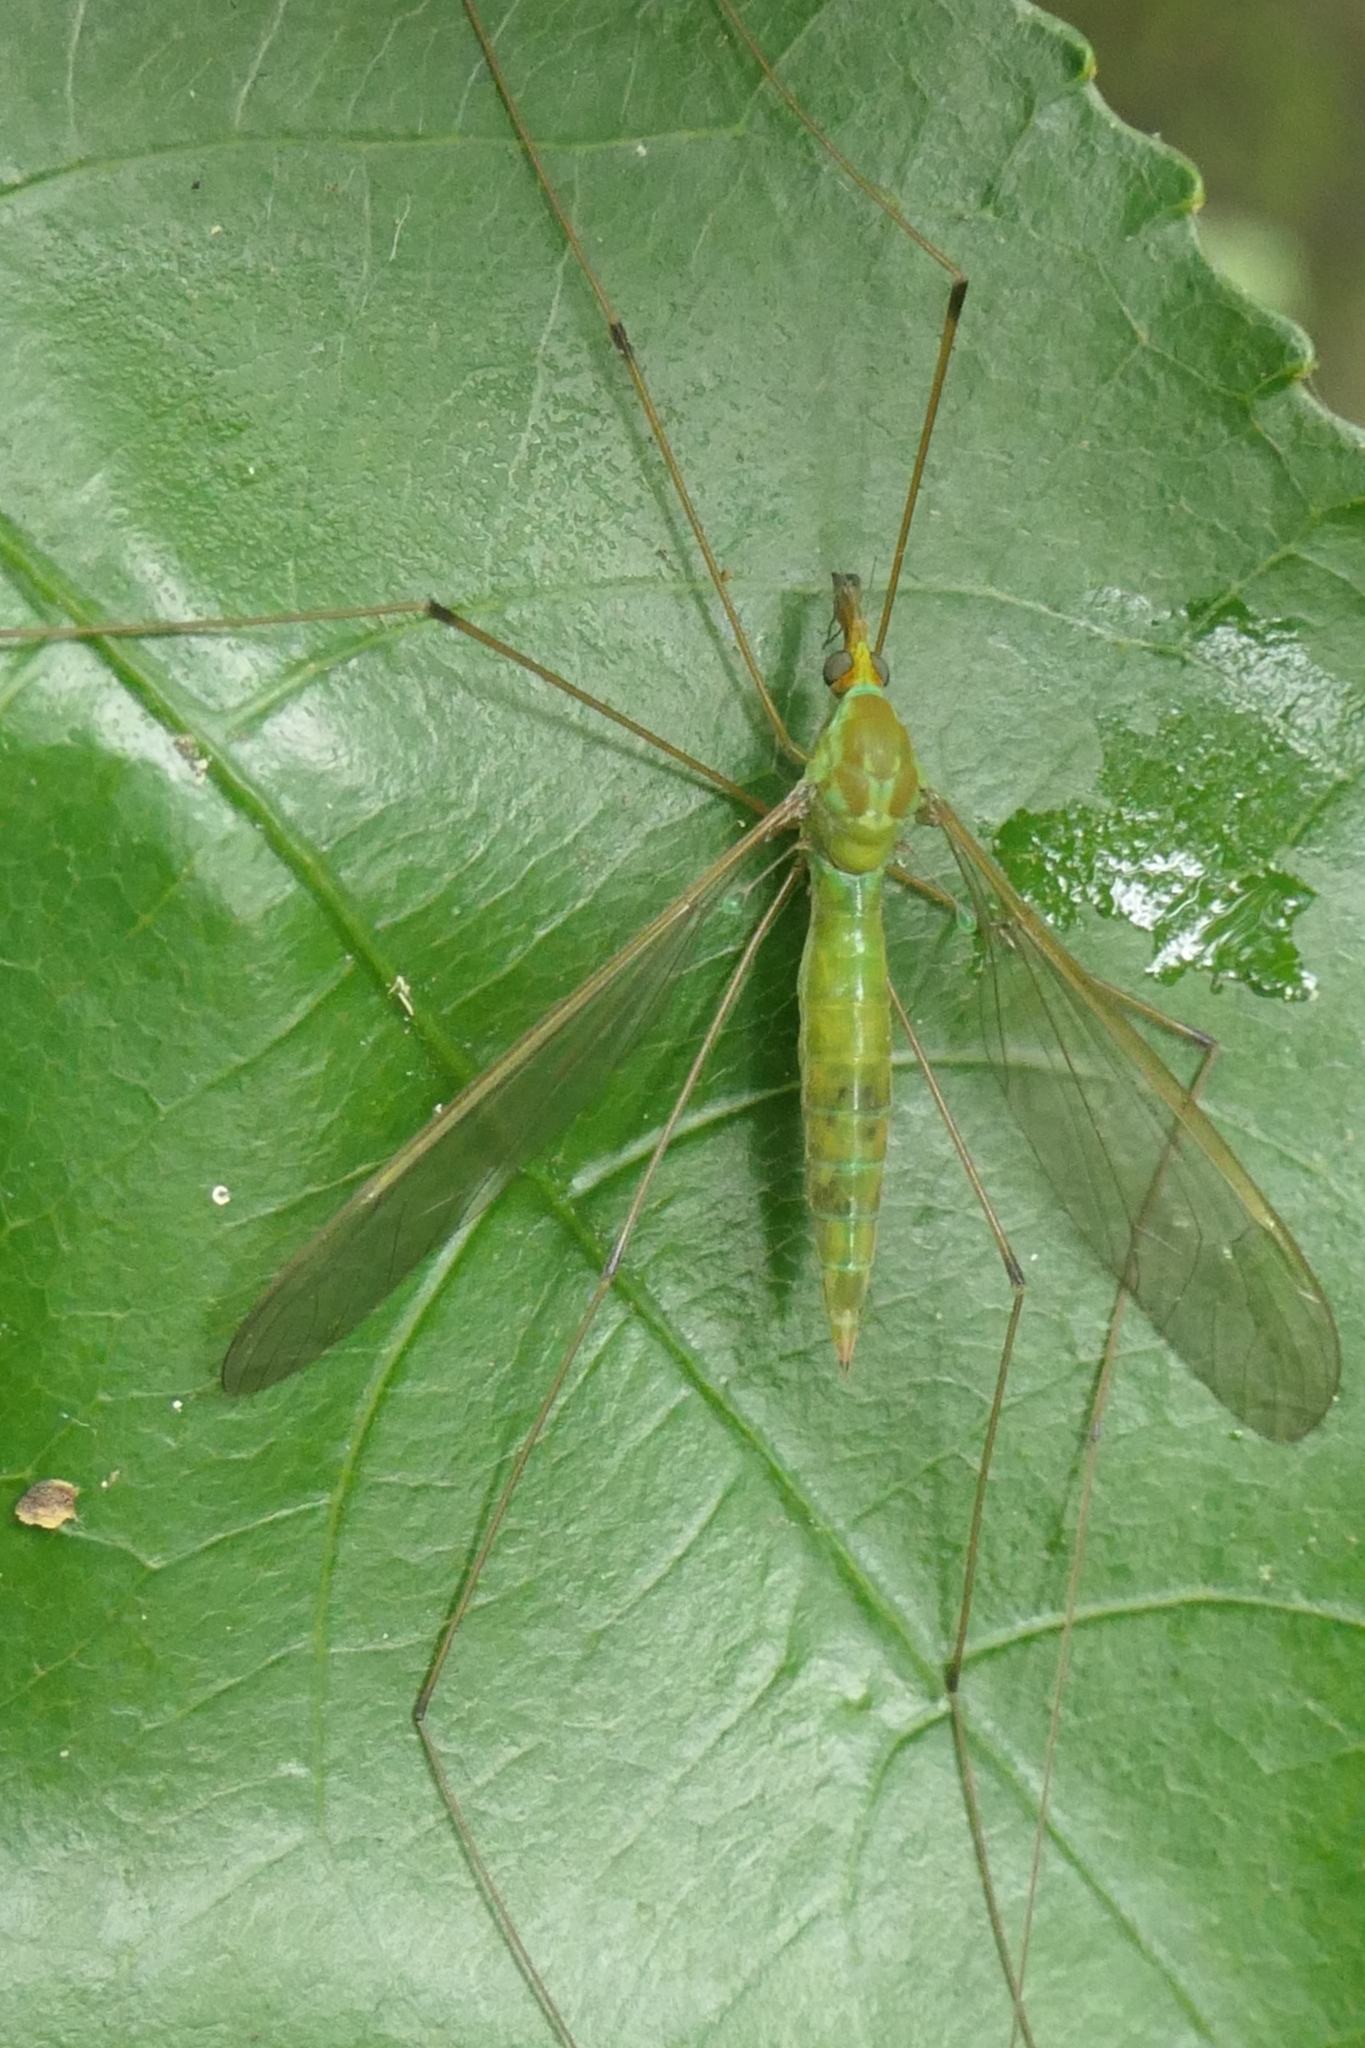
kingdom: Animalia
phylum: Arthropoda
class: Insecta
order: Diptera
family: Tipulidae
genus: Leptotarsus
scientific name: Leptotarsus virescens
